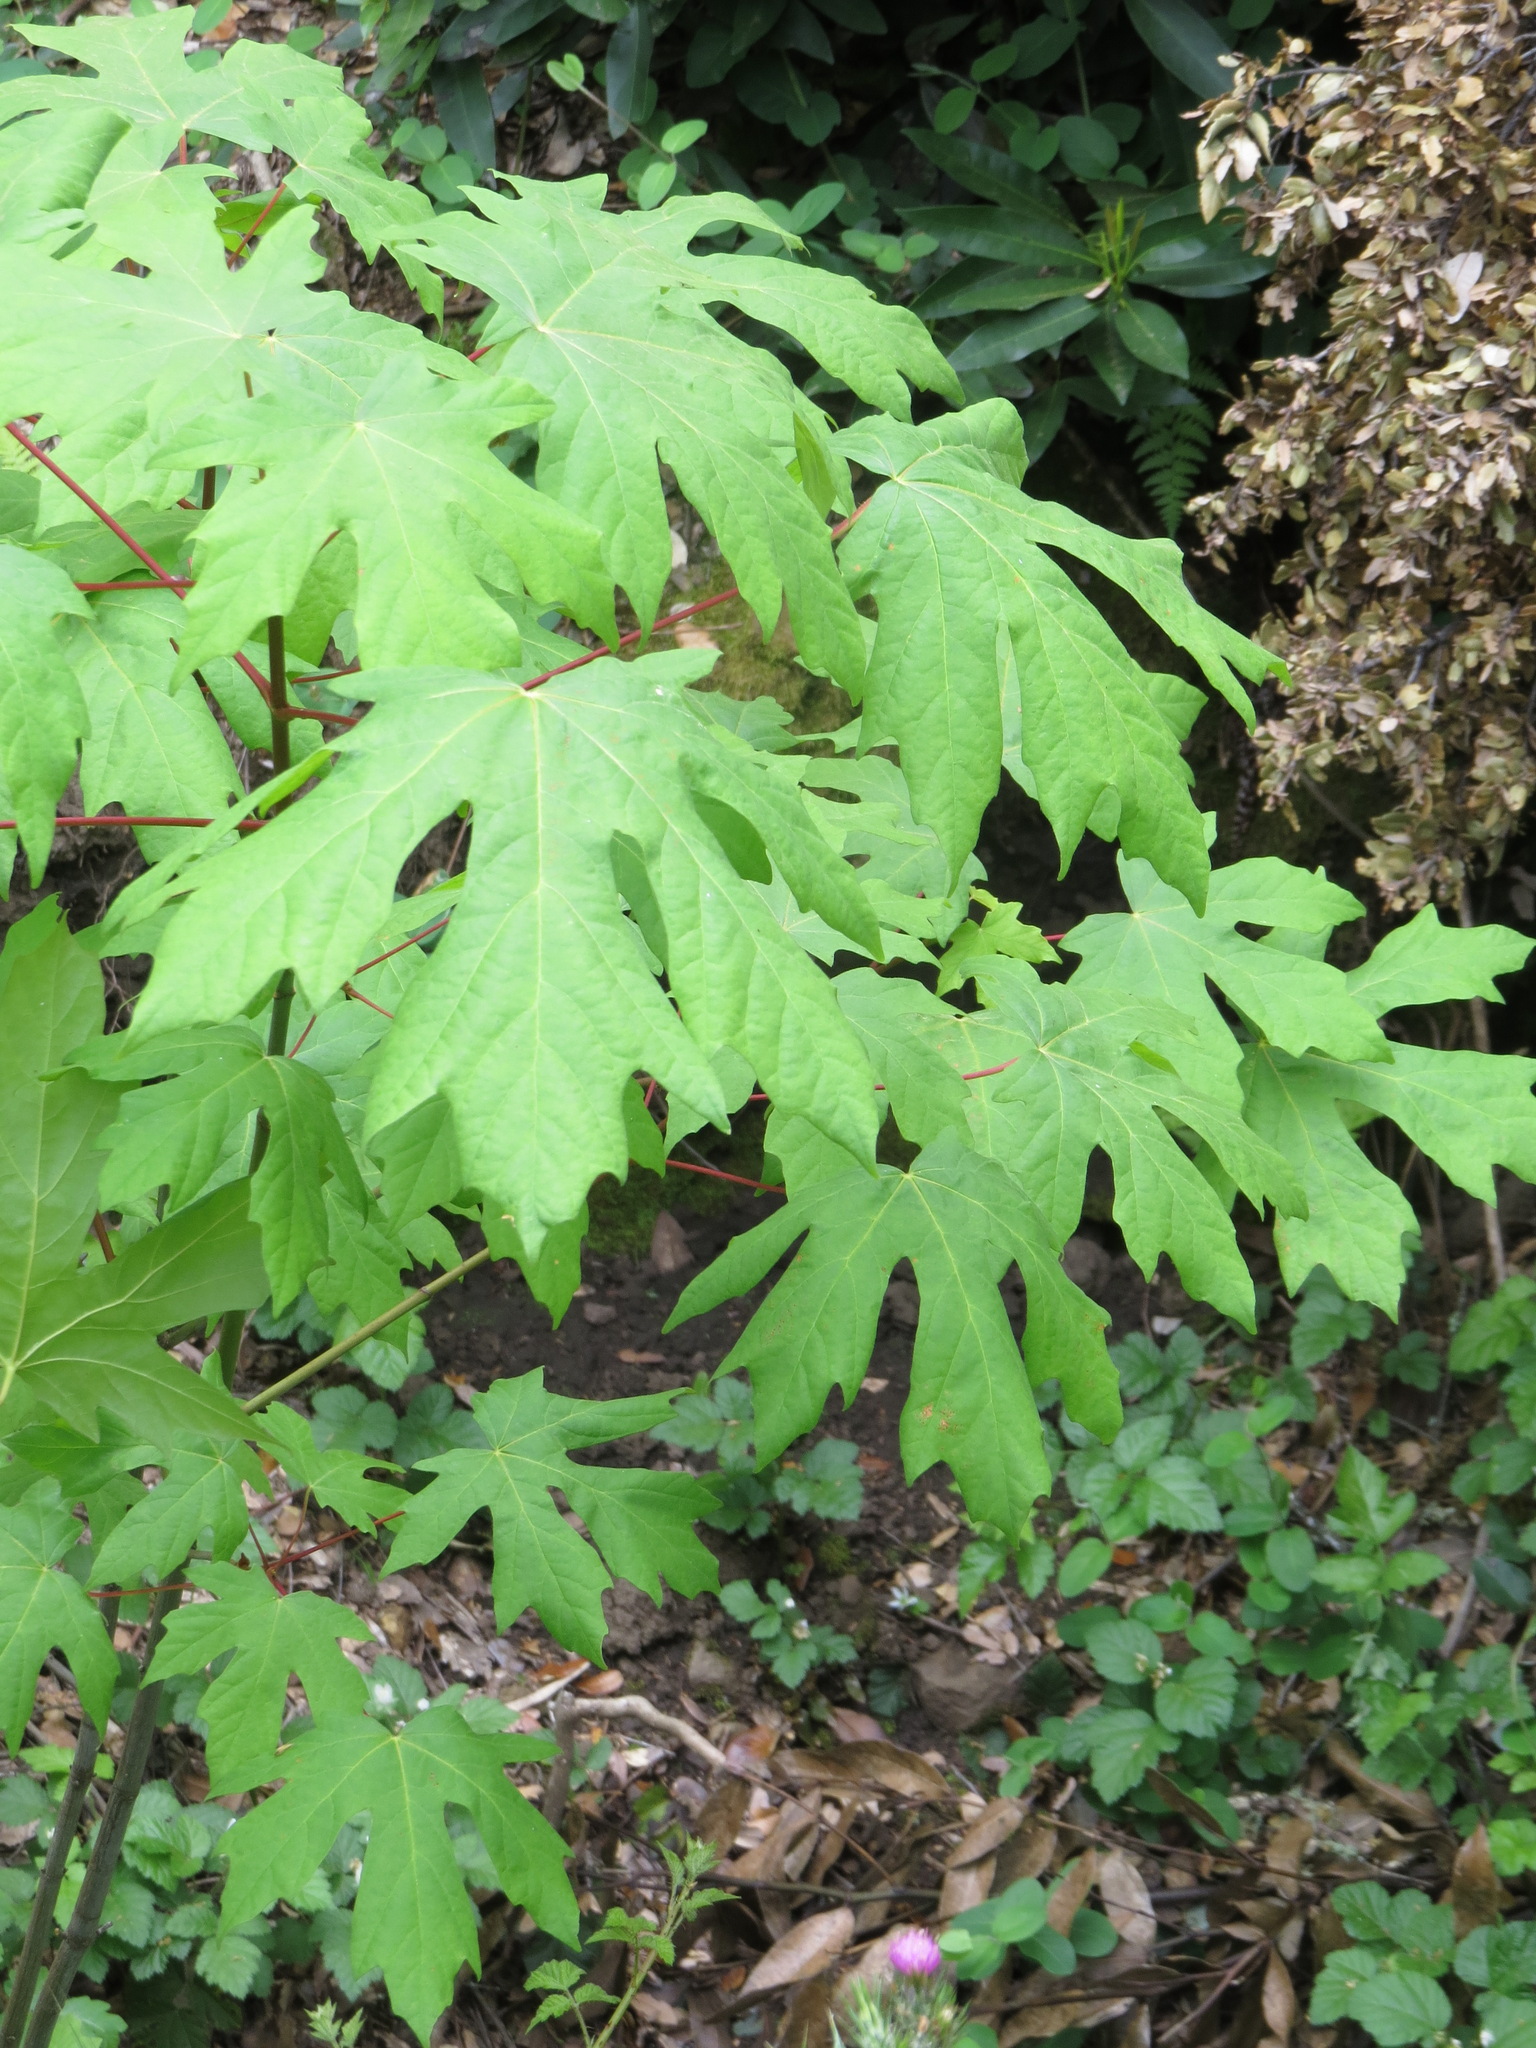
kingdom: Plantae
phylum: Tracheophyta
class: Magnoliopsida
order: Sapindales
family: Sapindaceae
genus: Acer
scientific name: Acer macrophyllum
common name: Oregon maple
